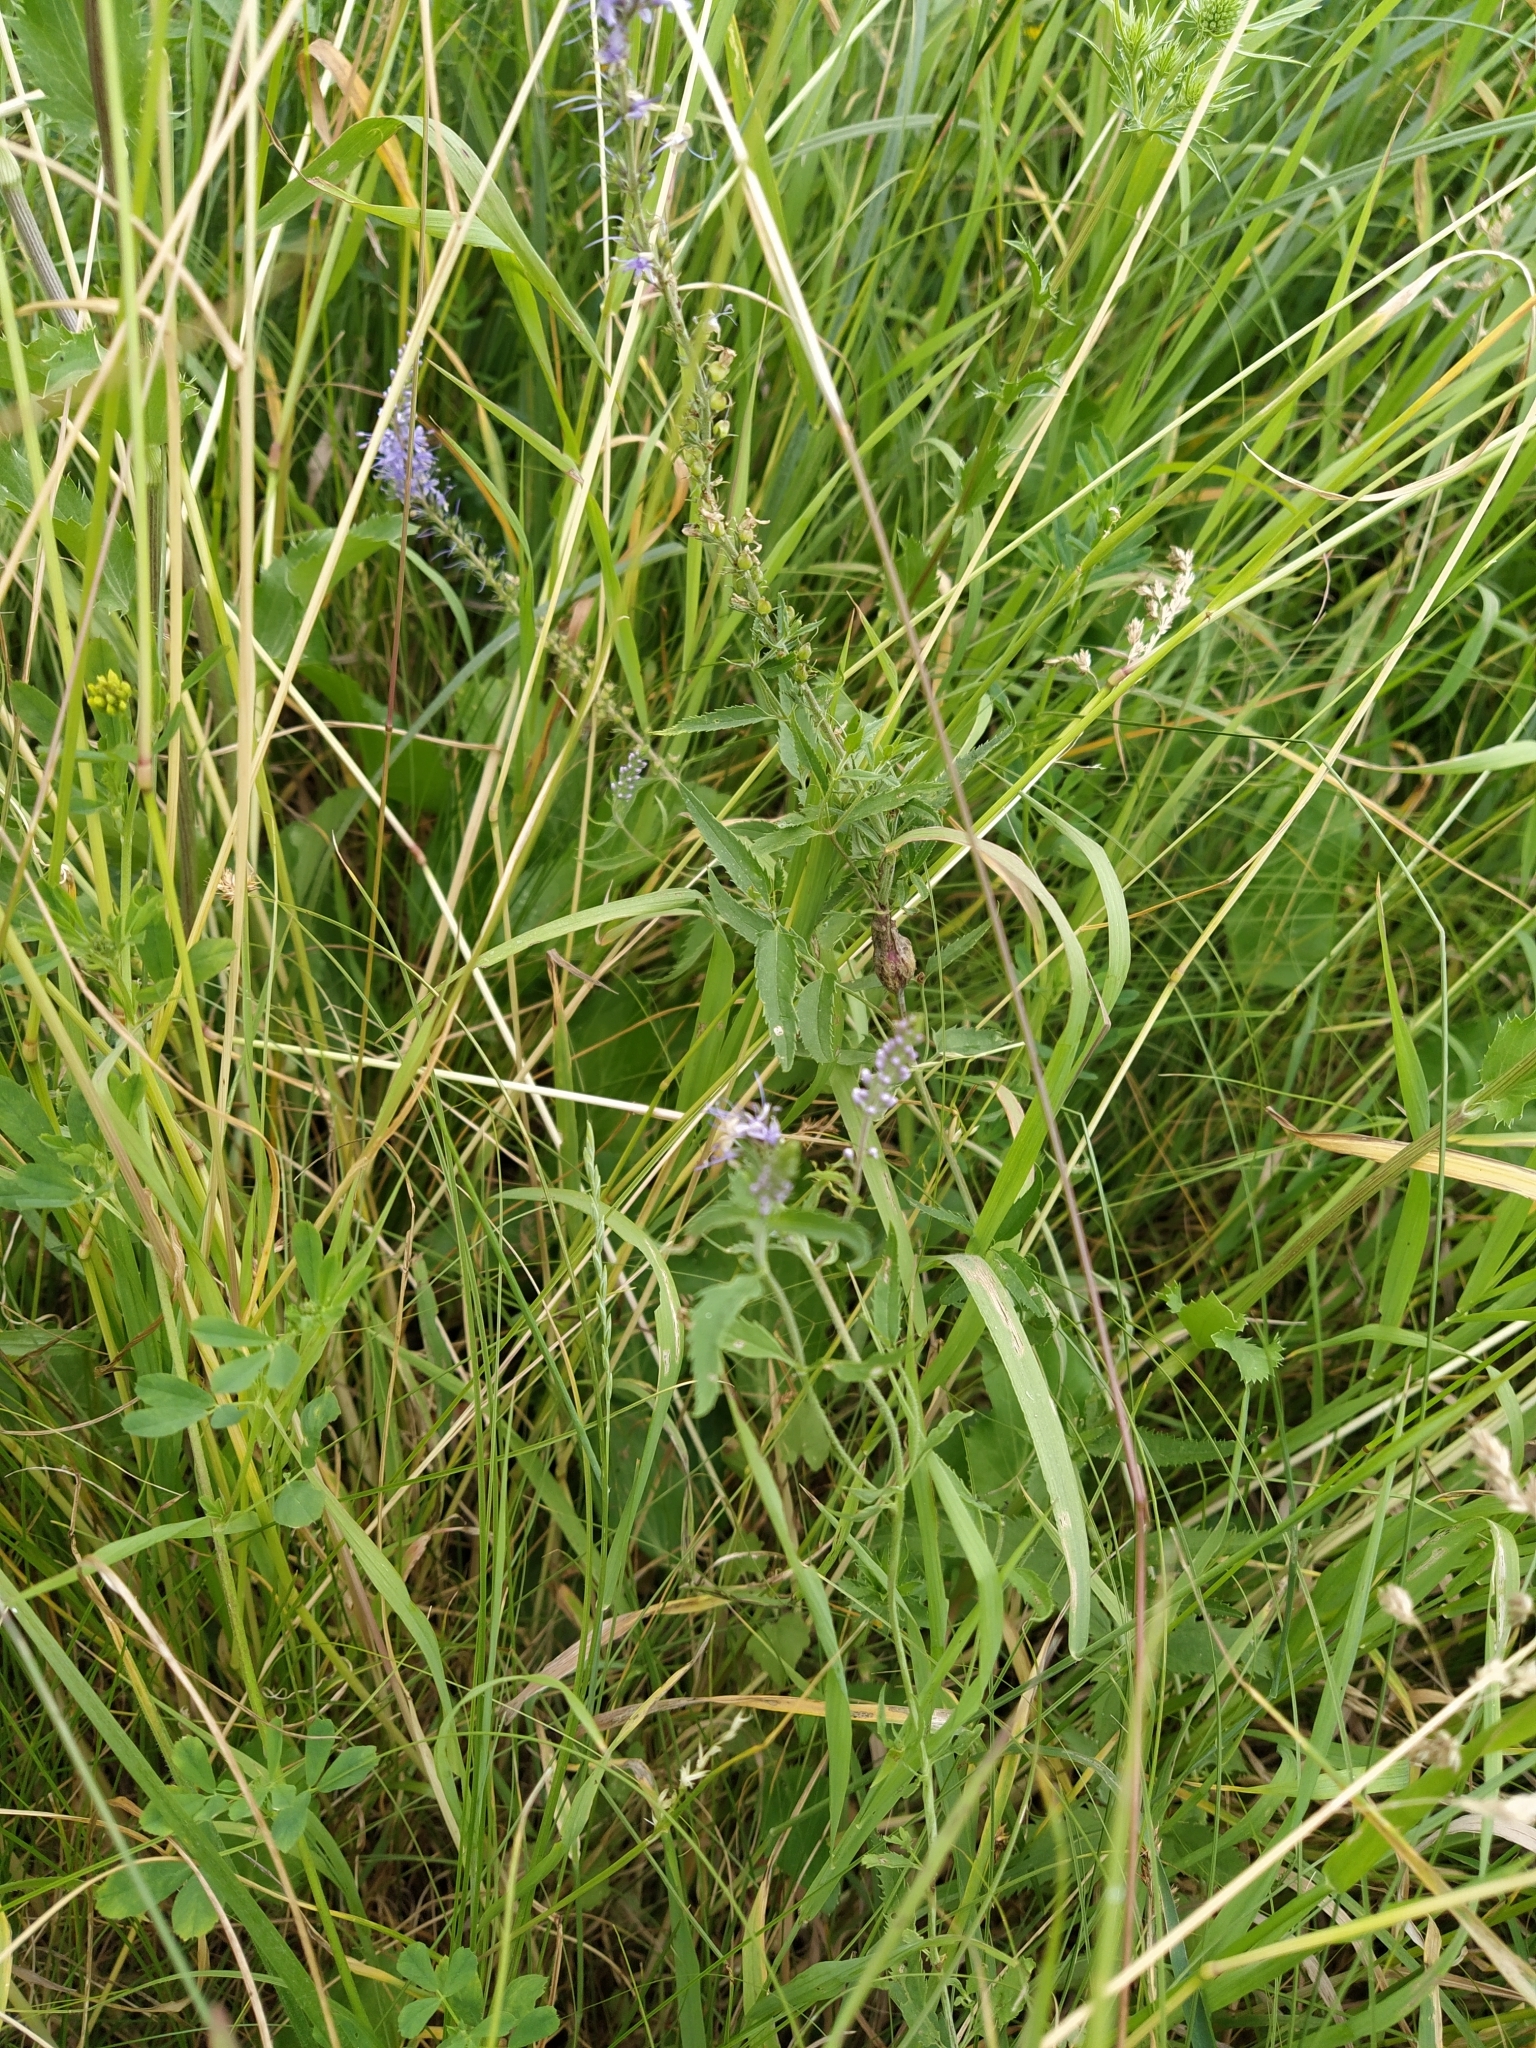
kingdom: Plantae
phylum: Tracheophyta
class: Magnoliopsida
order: Lamiales
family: Plantaginaceae
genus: Veronica
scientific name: Veronica longifolia
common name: Garden speedwell
